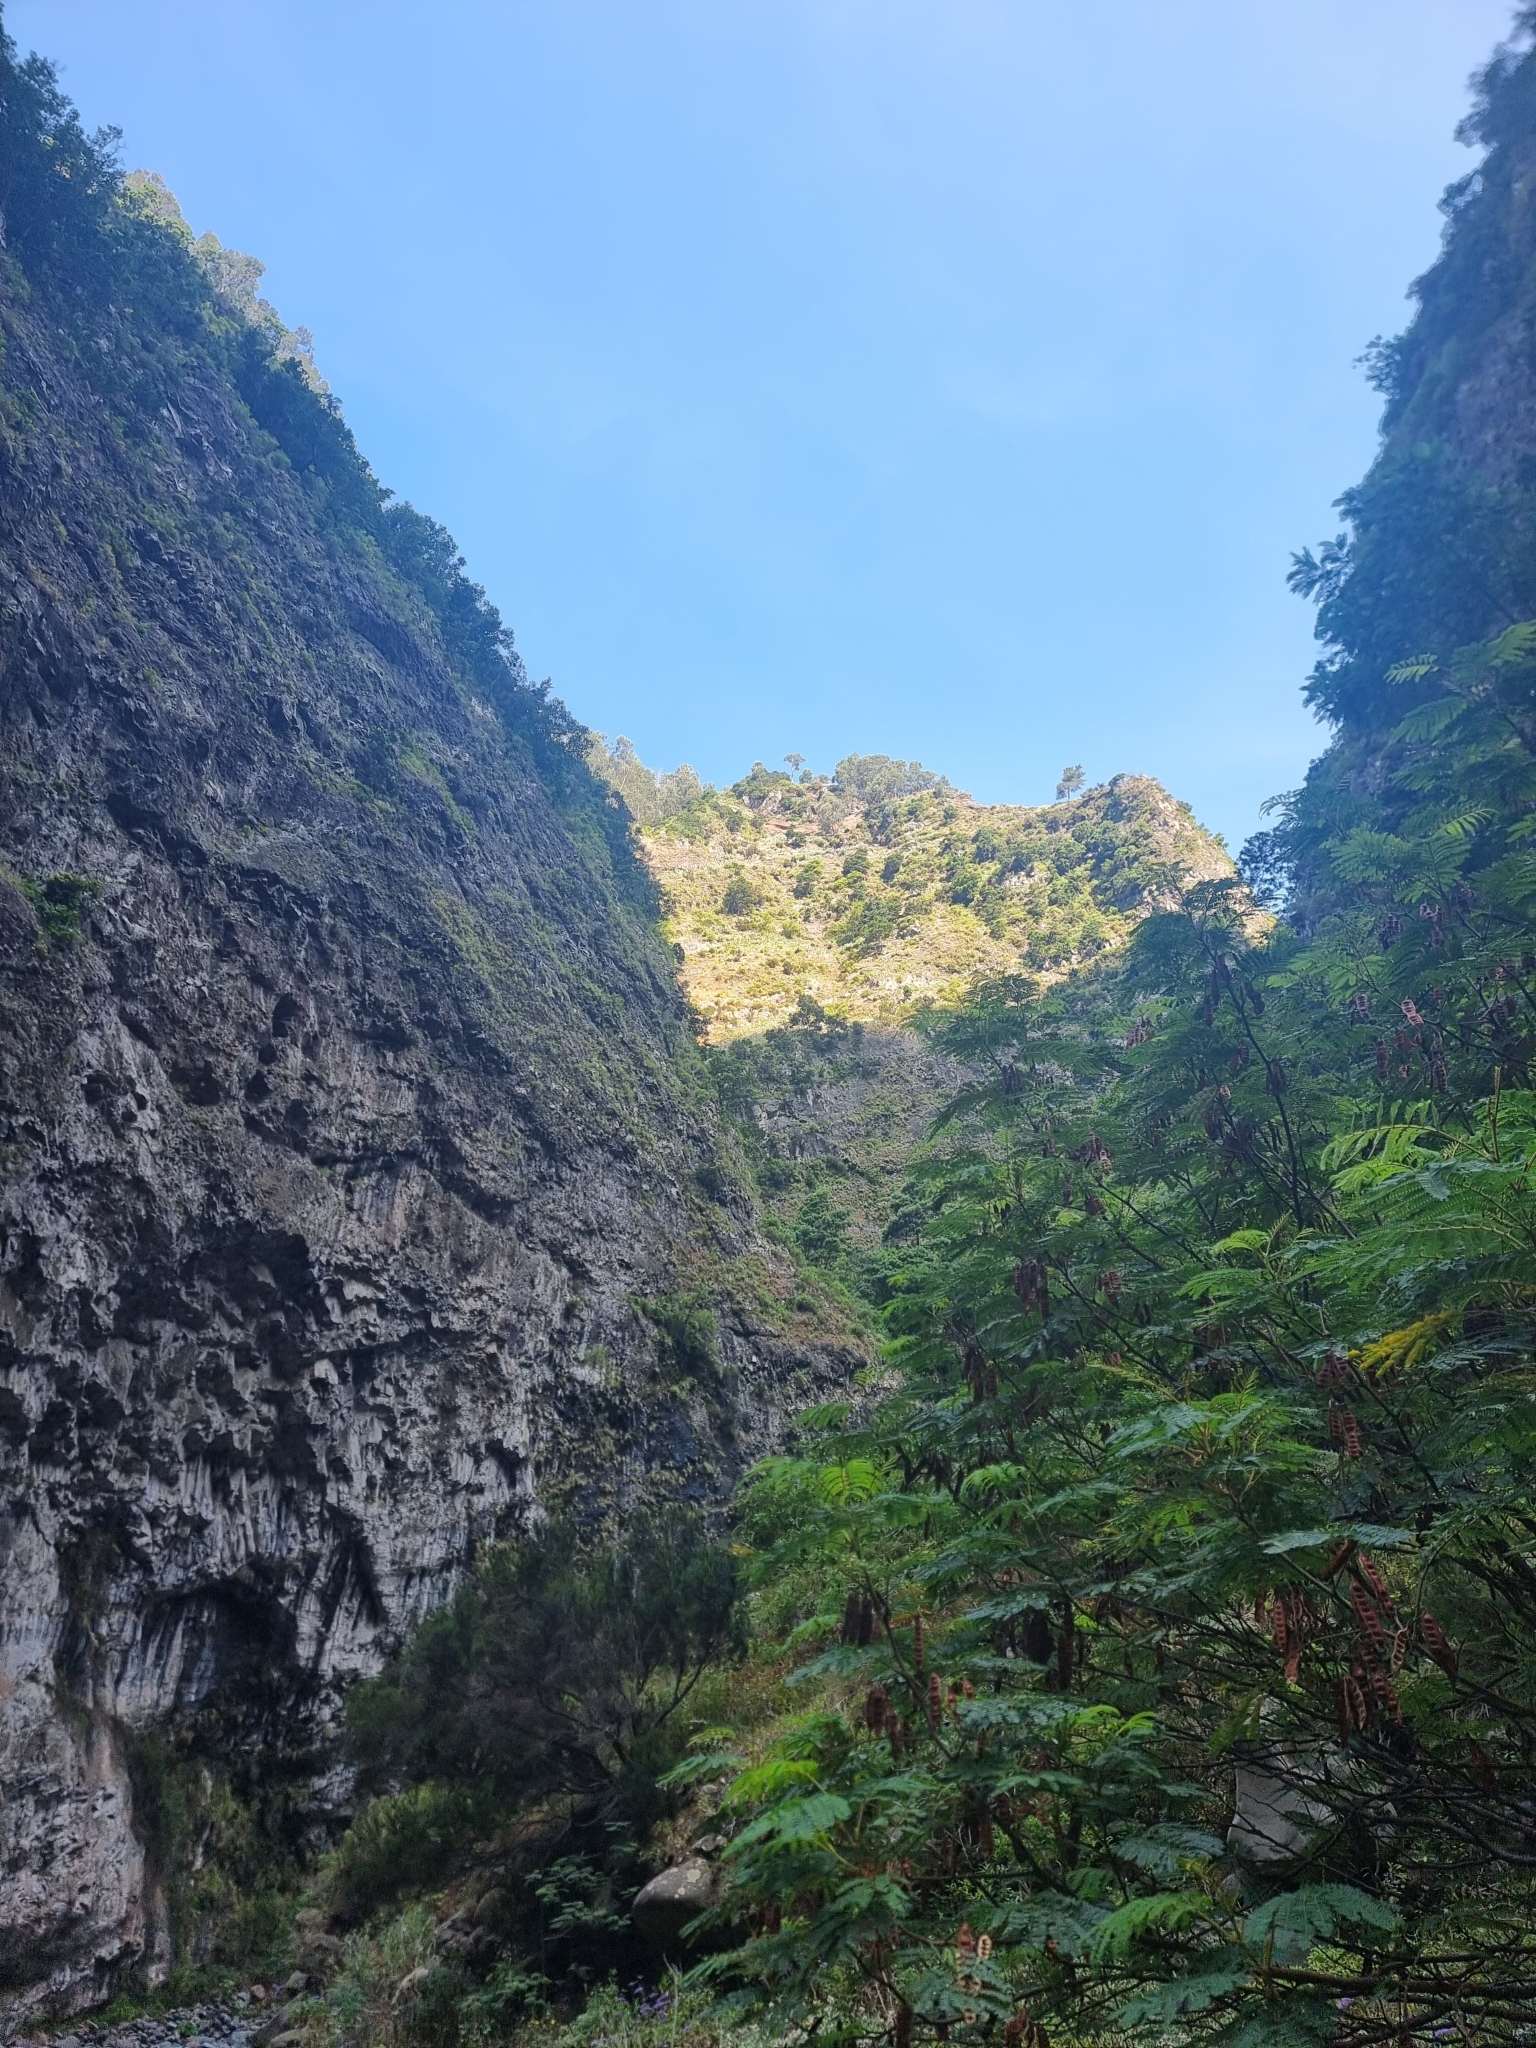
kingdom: Plantae
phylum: Tracheophyta
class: Magnoliopsida
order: Fabales
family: Fabaceae
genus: Paraserianthes
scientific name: Paraserianthes lophantha
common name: Plume albizia
